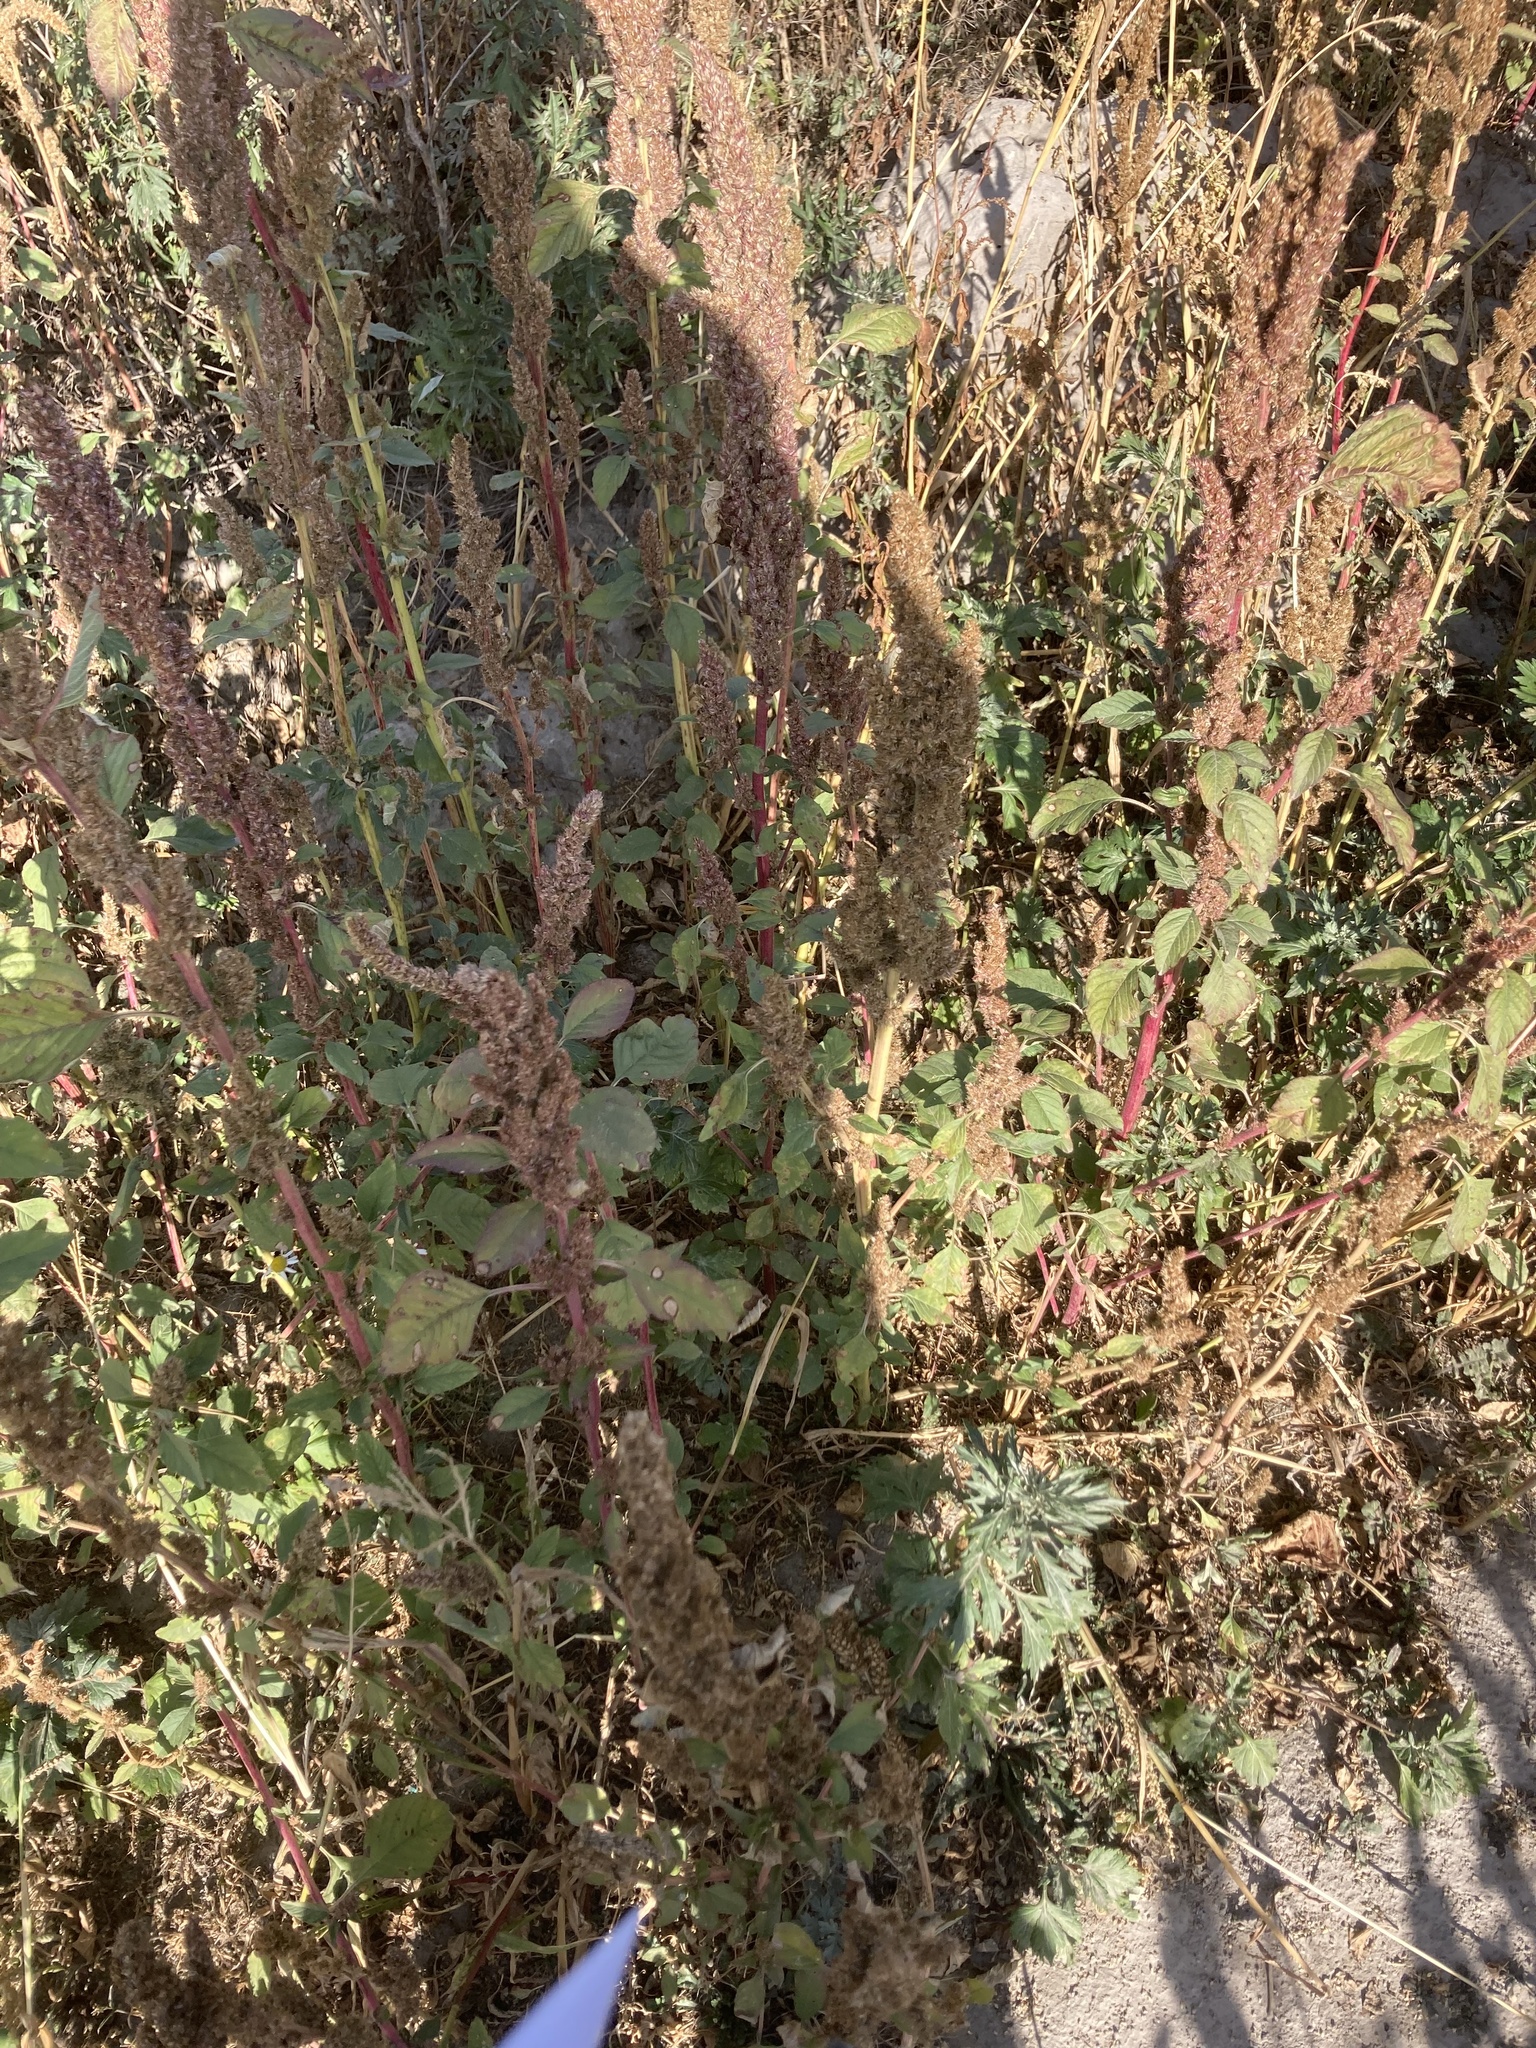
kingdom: Plantae
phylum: Tracheophyta
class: Magnoliopsida
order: Caryophyllales
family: Amaranthaceae
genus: Amaranthus
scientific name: Amaranthus retroflexus
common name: Redroot amaranth
